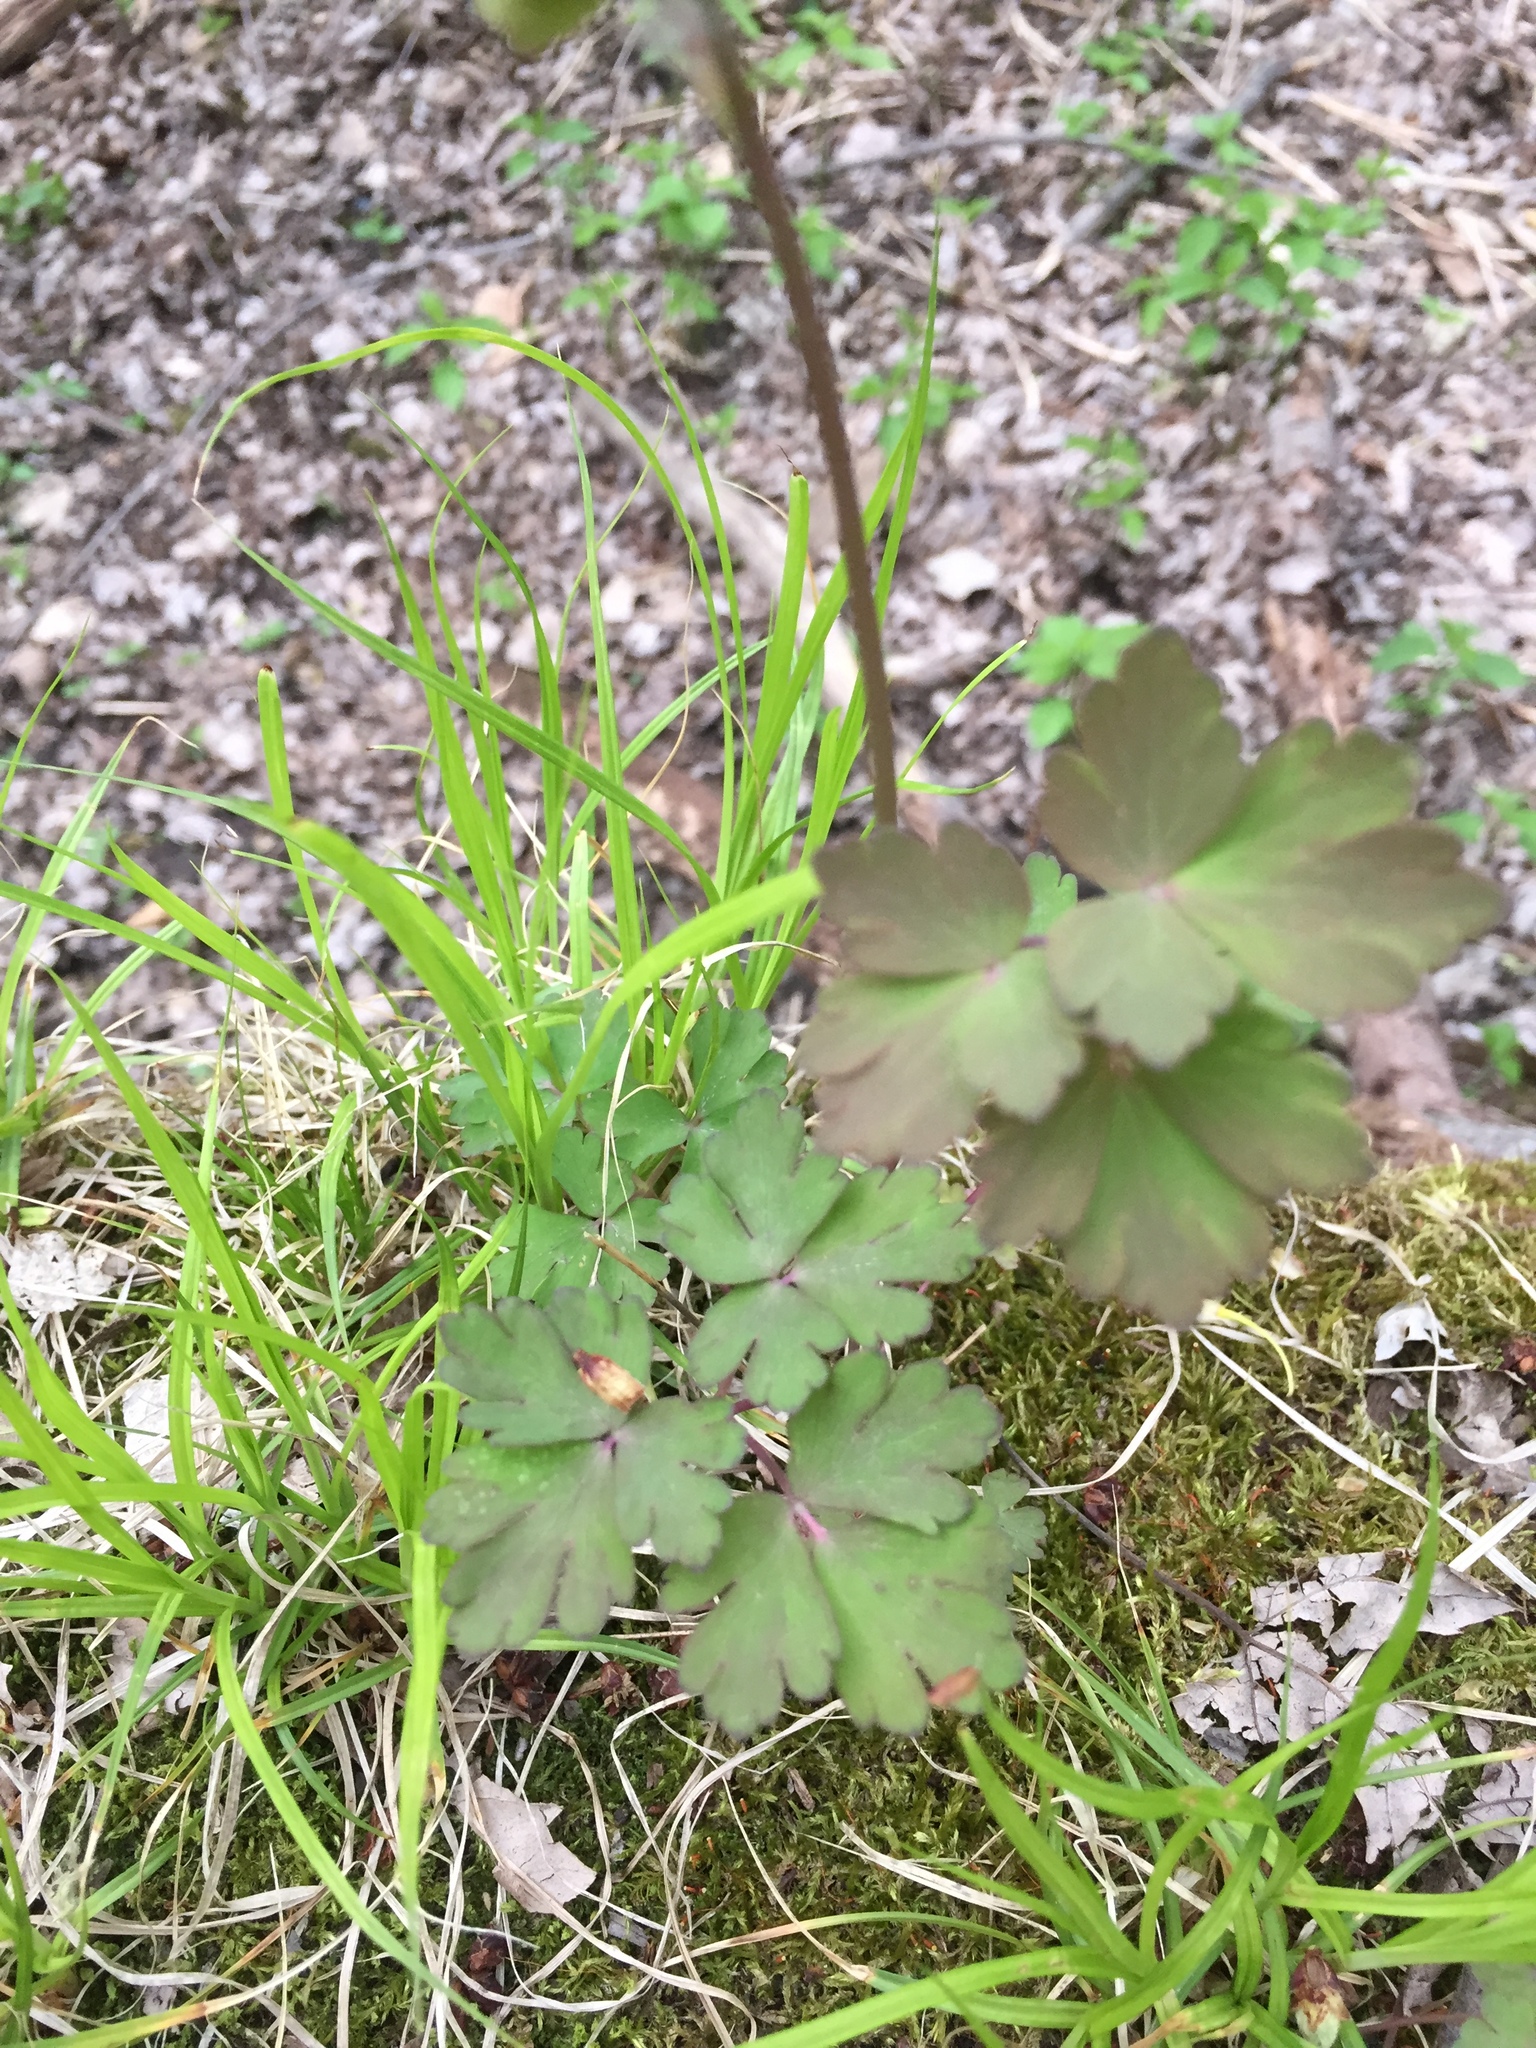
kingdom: Plantae
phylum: Tracheophyta
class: Magnoliopsida
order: Ranunculales
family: Ranunculaceae
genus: Aquilegia
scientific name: Aquilegia canadensis
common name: American columbine
